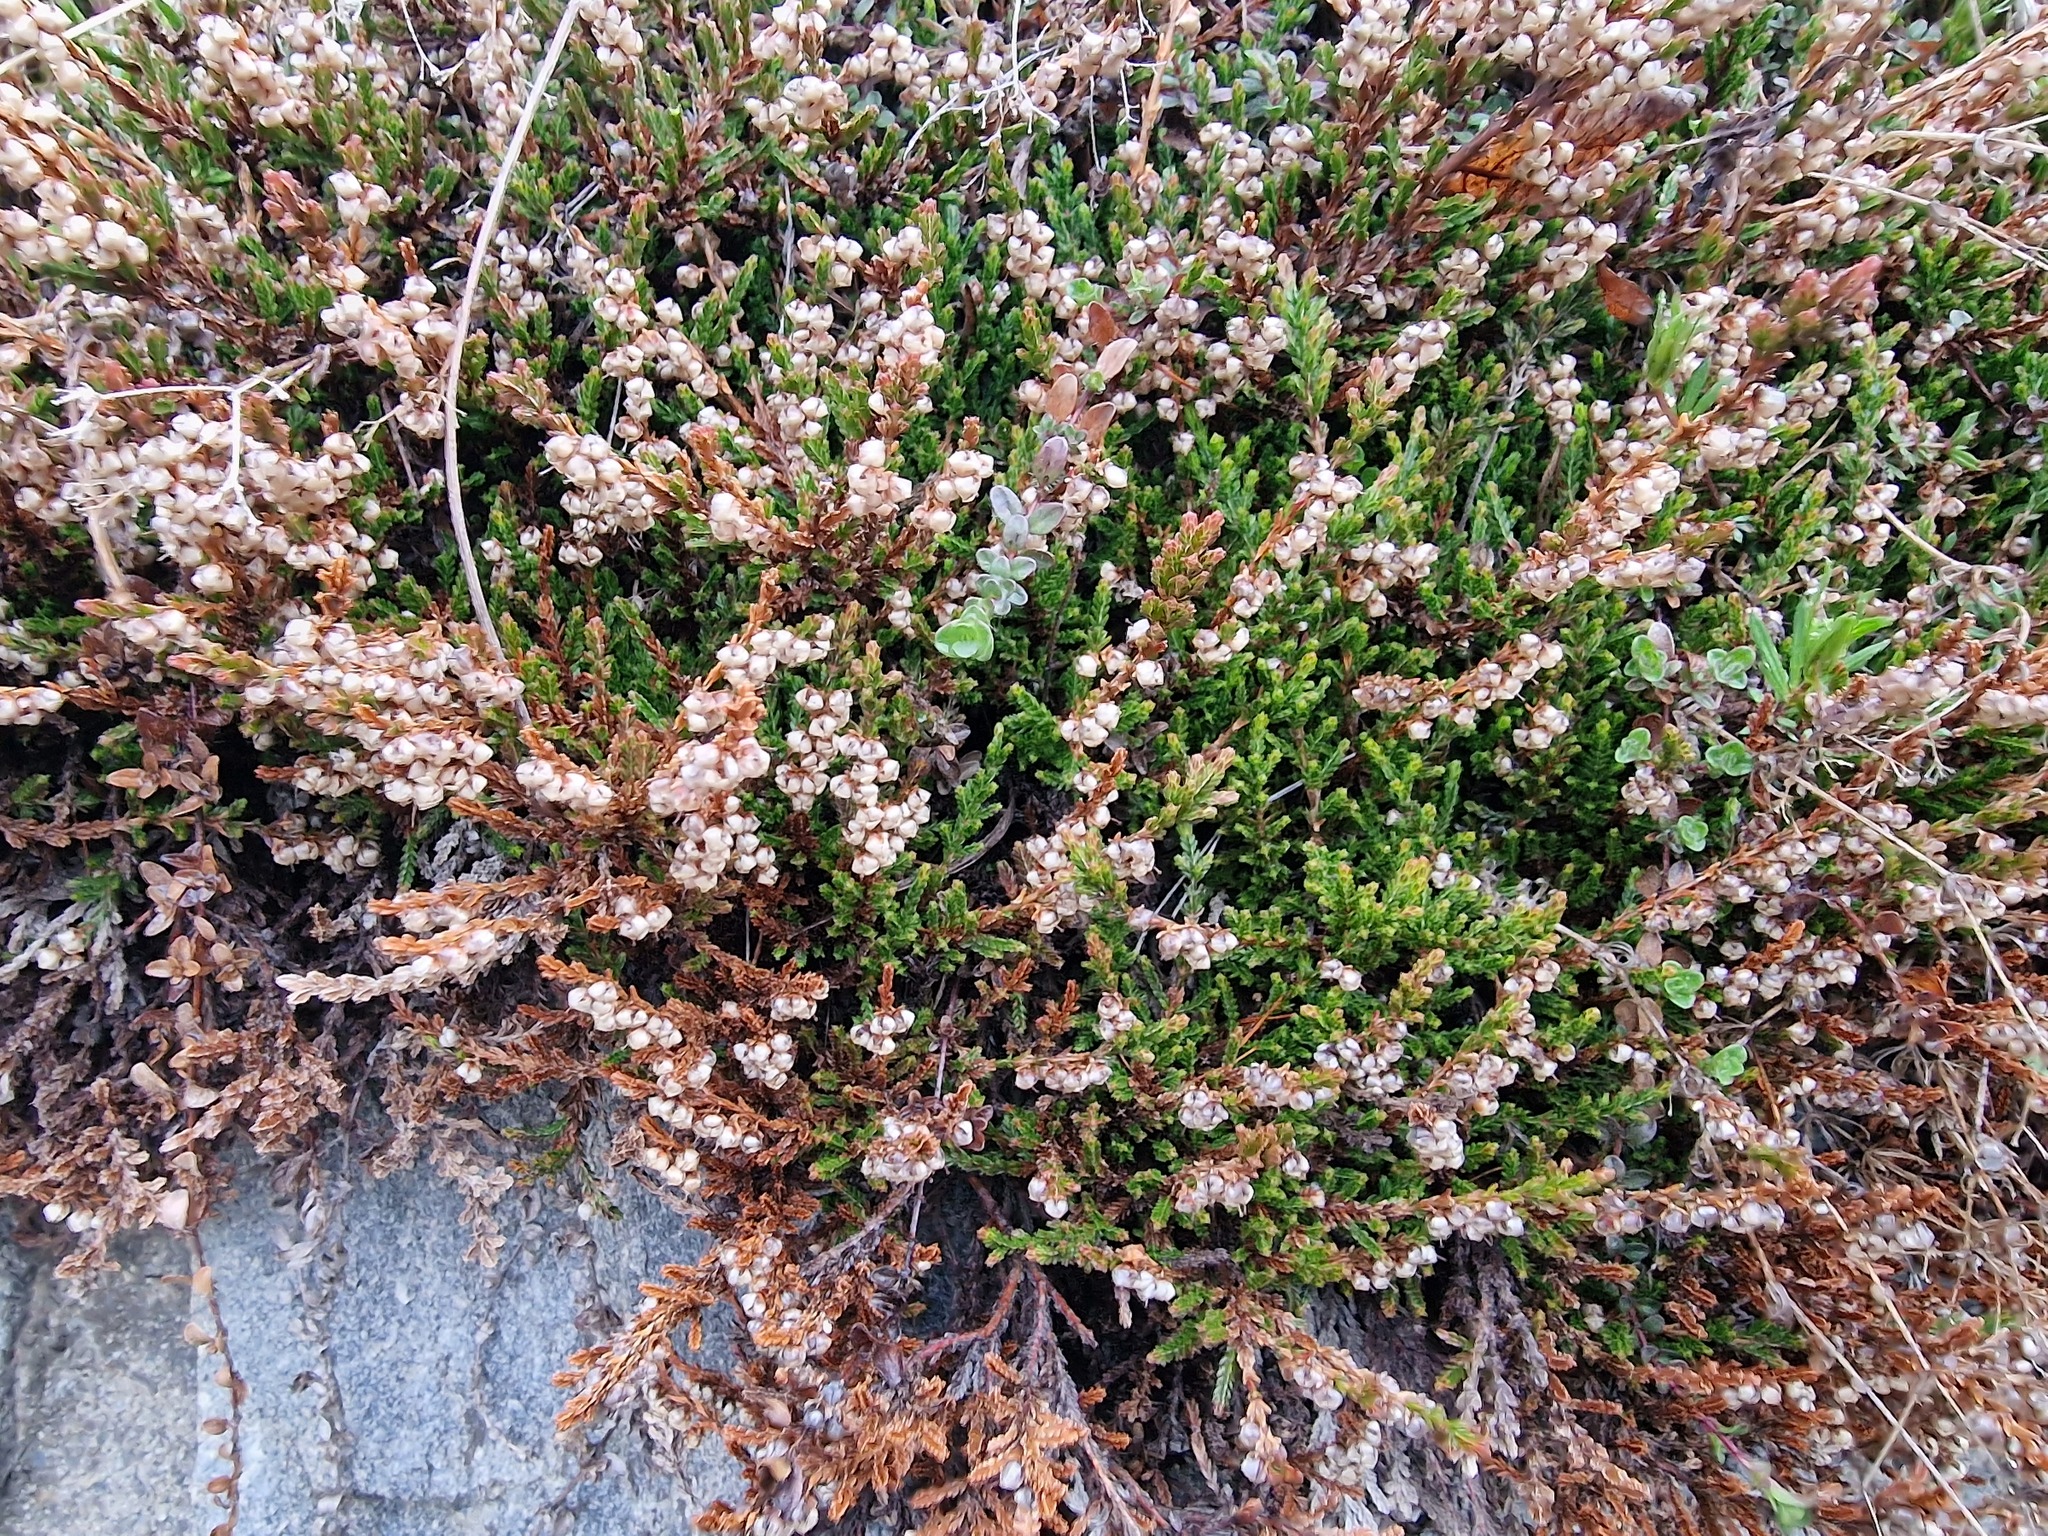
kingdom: Plantae
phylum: Tracheophyta
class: Magnoliopsida
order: Ericales
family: Ericaceae
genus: Calluna
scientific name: Calluna vulgaris
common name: Heather
